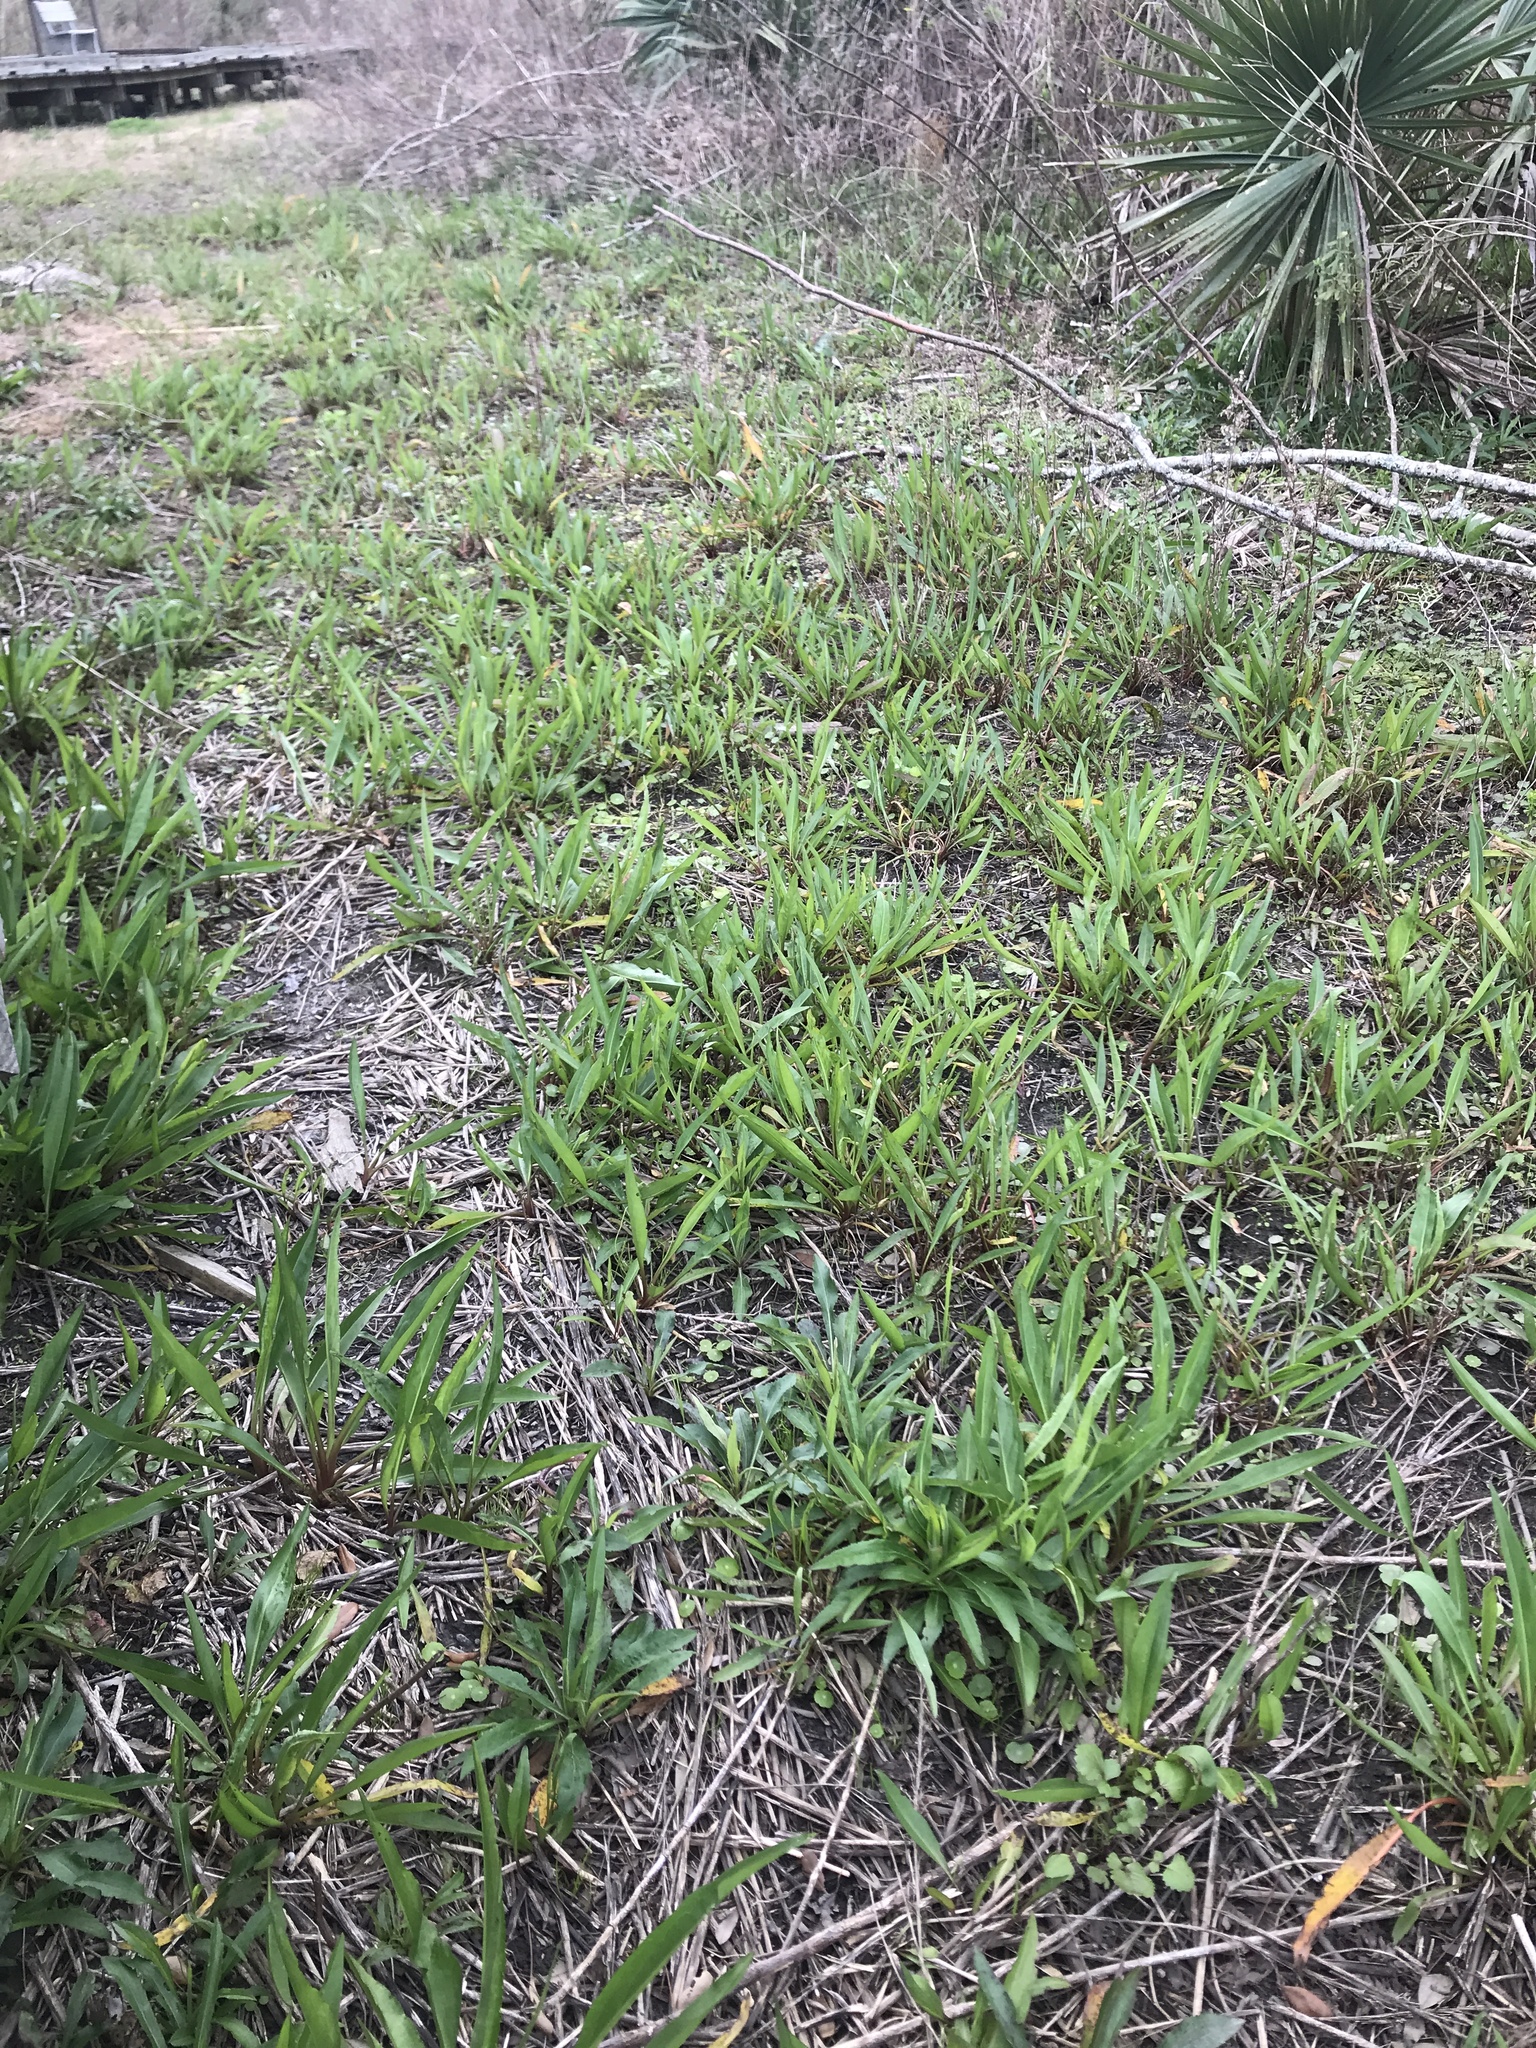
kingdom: Plantae
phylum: Tracheophyta
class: Magnoliopsida
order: Asterales
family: Asteraceae
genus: Solidago
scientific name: Solidago mexicana
